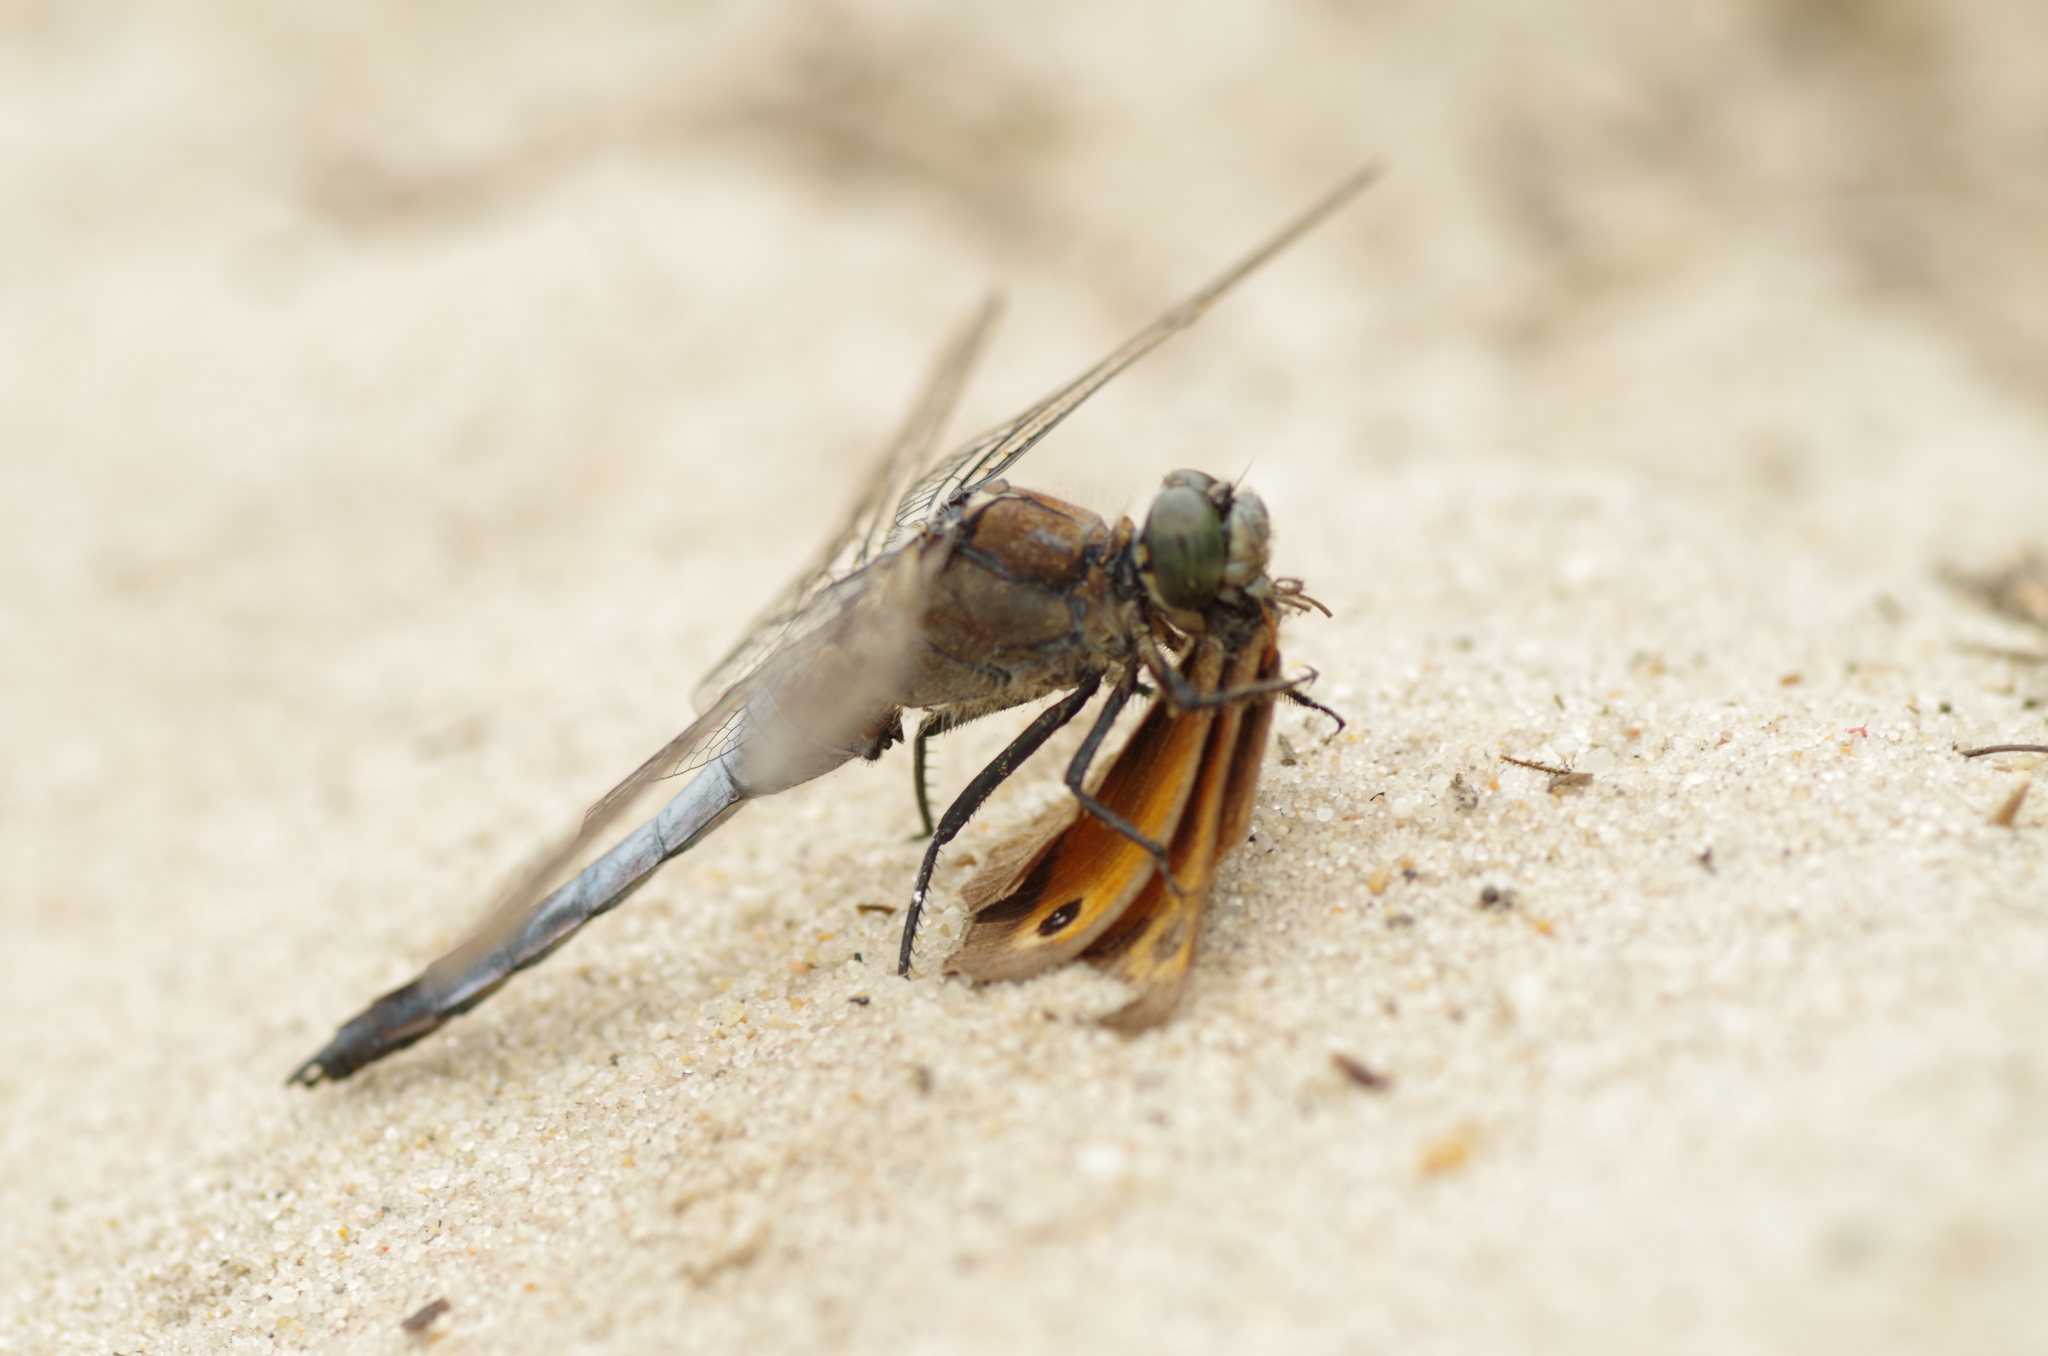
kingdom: Animalia
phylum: Arthropoda
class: Insecta
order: Odonata
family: Libellulidae
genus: Orthetrum
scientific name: Orthetrum cancellatum
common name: Black-tailed skimmer
